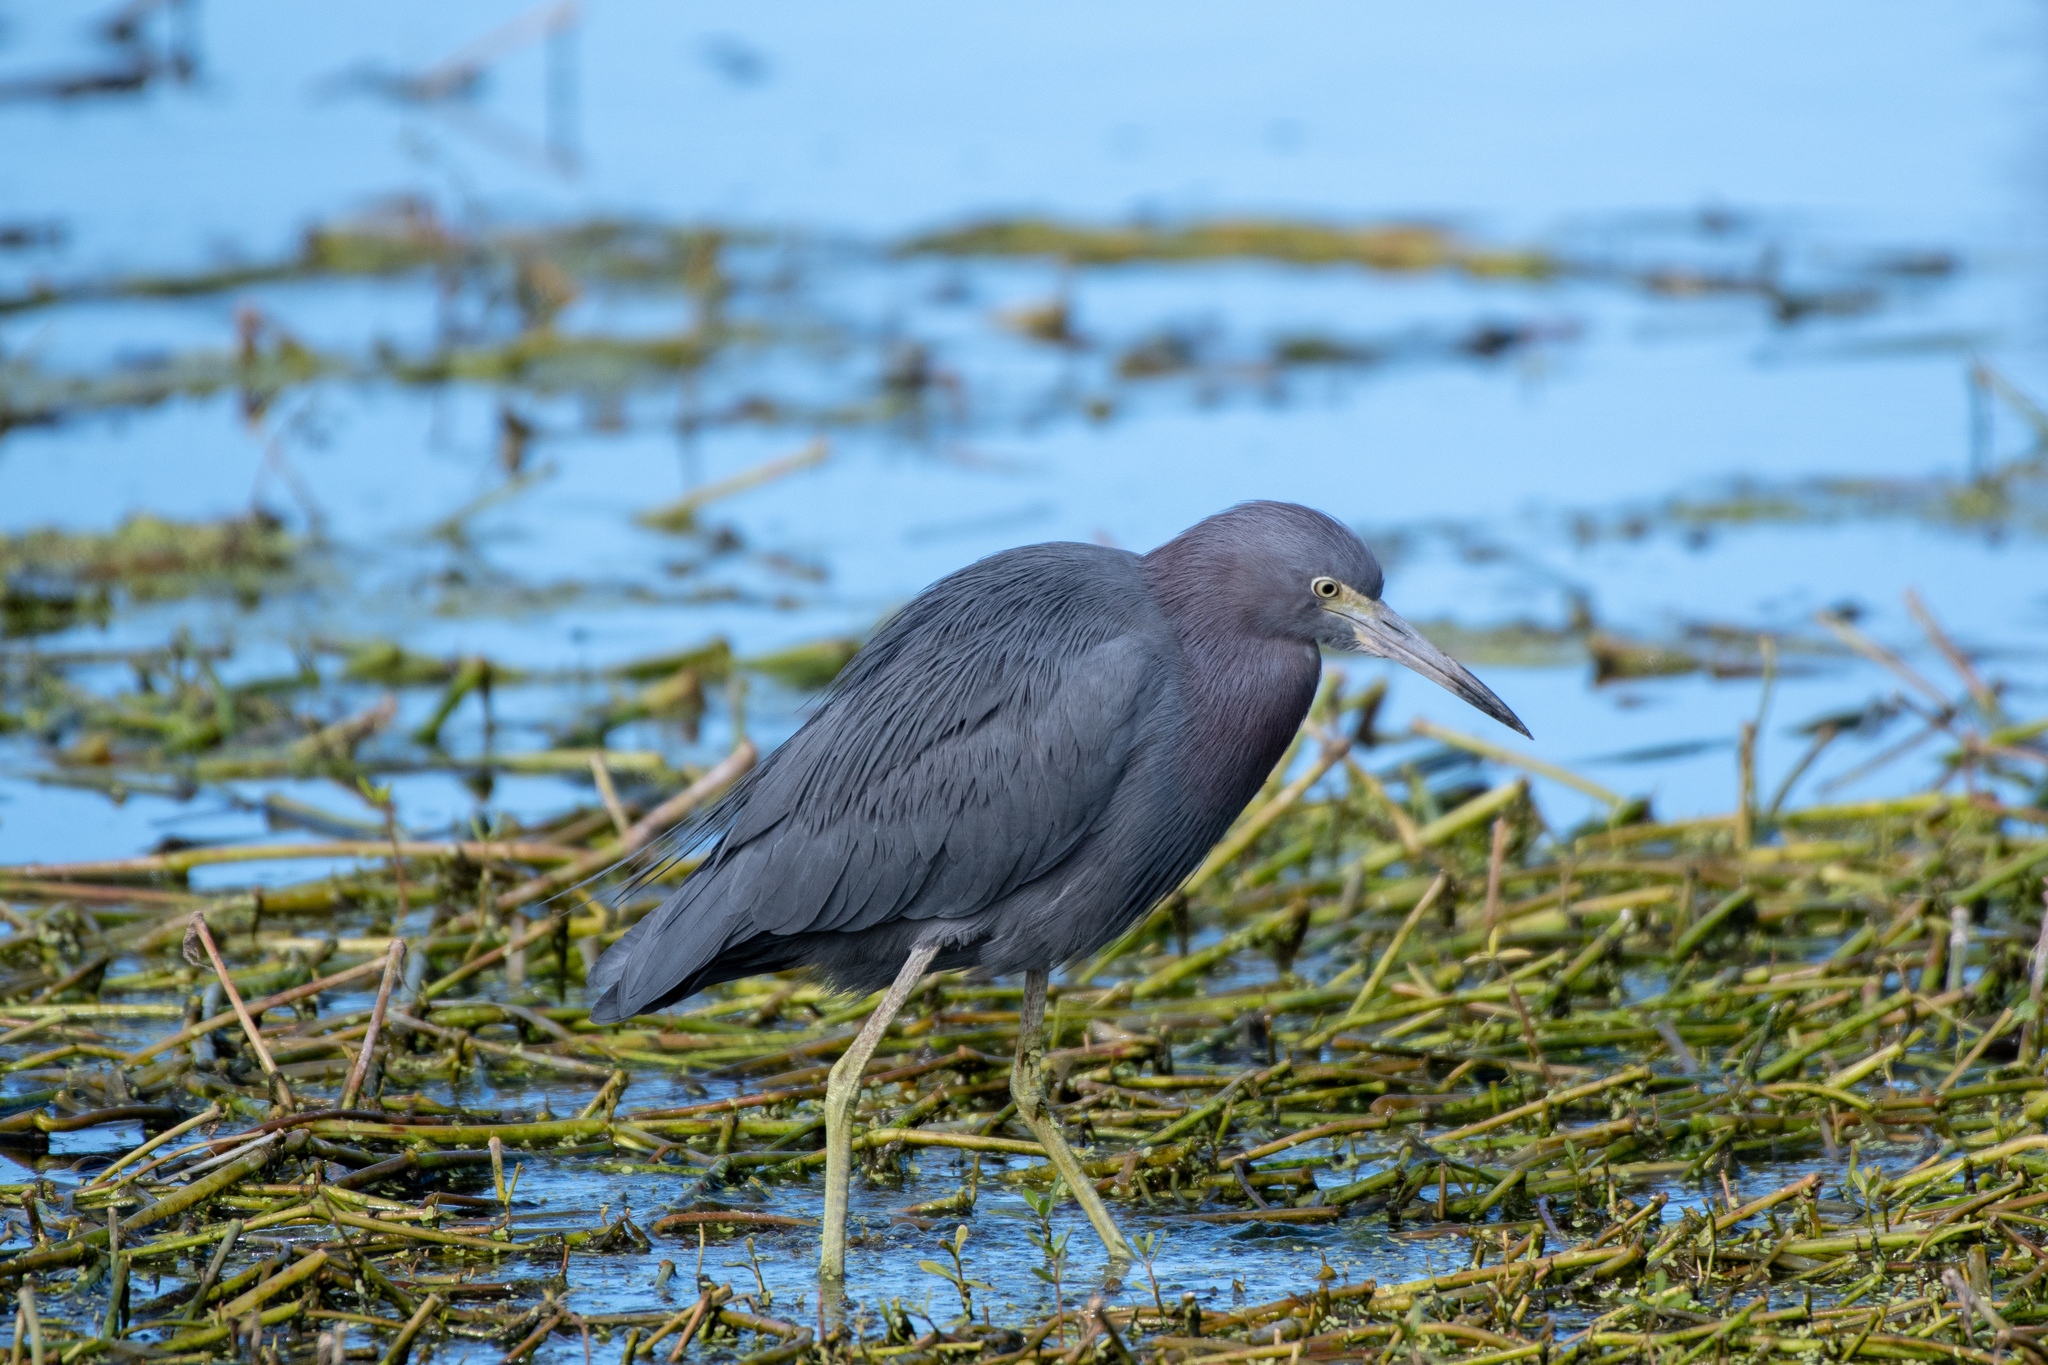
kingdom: Animalia
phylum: Chordata
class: Aves
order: Pelecaniformes
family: Ardeidae
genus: Egretta
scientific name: Egretta caerulea
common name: Little blue heron
